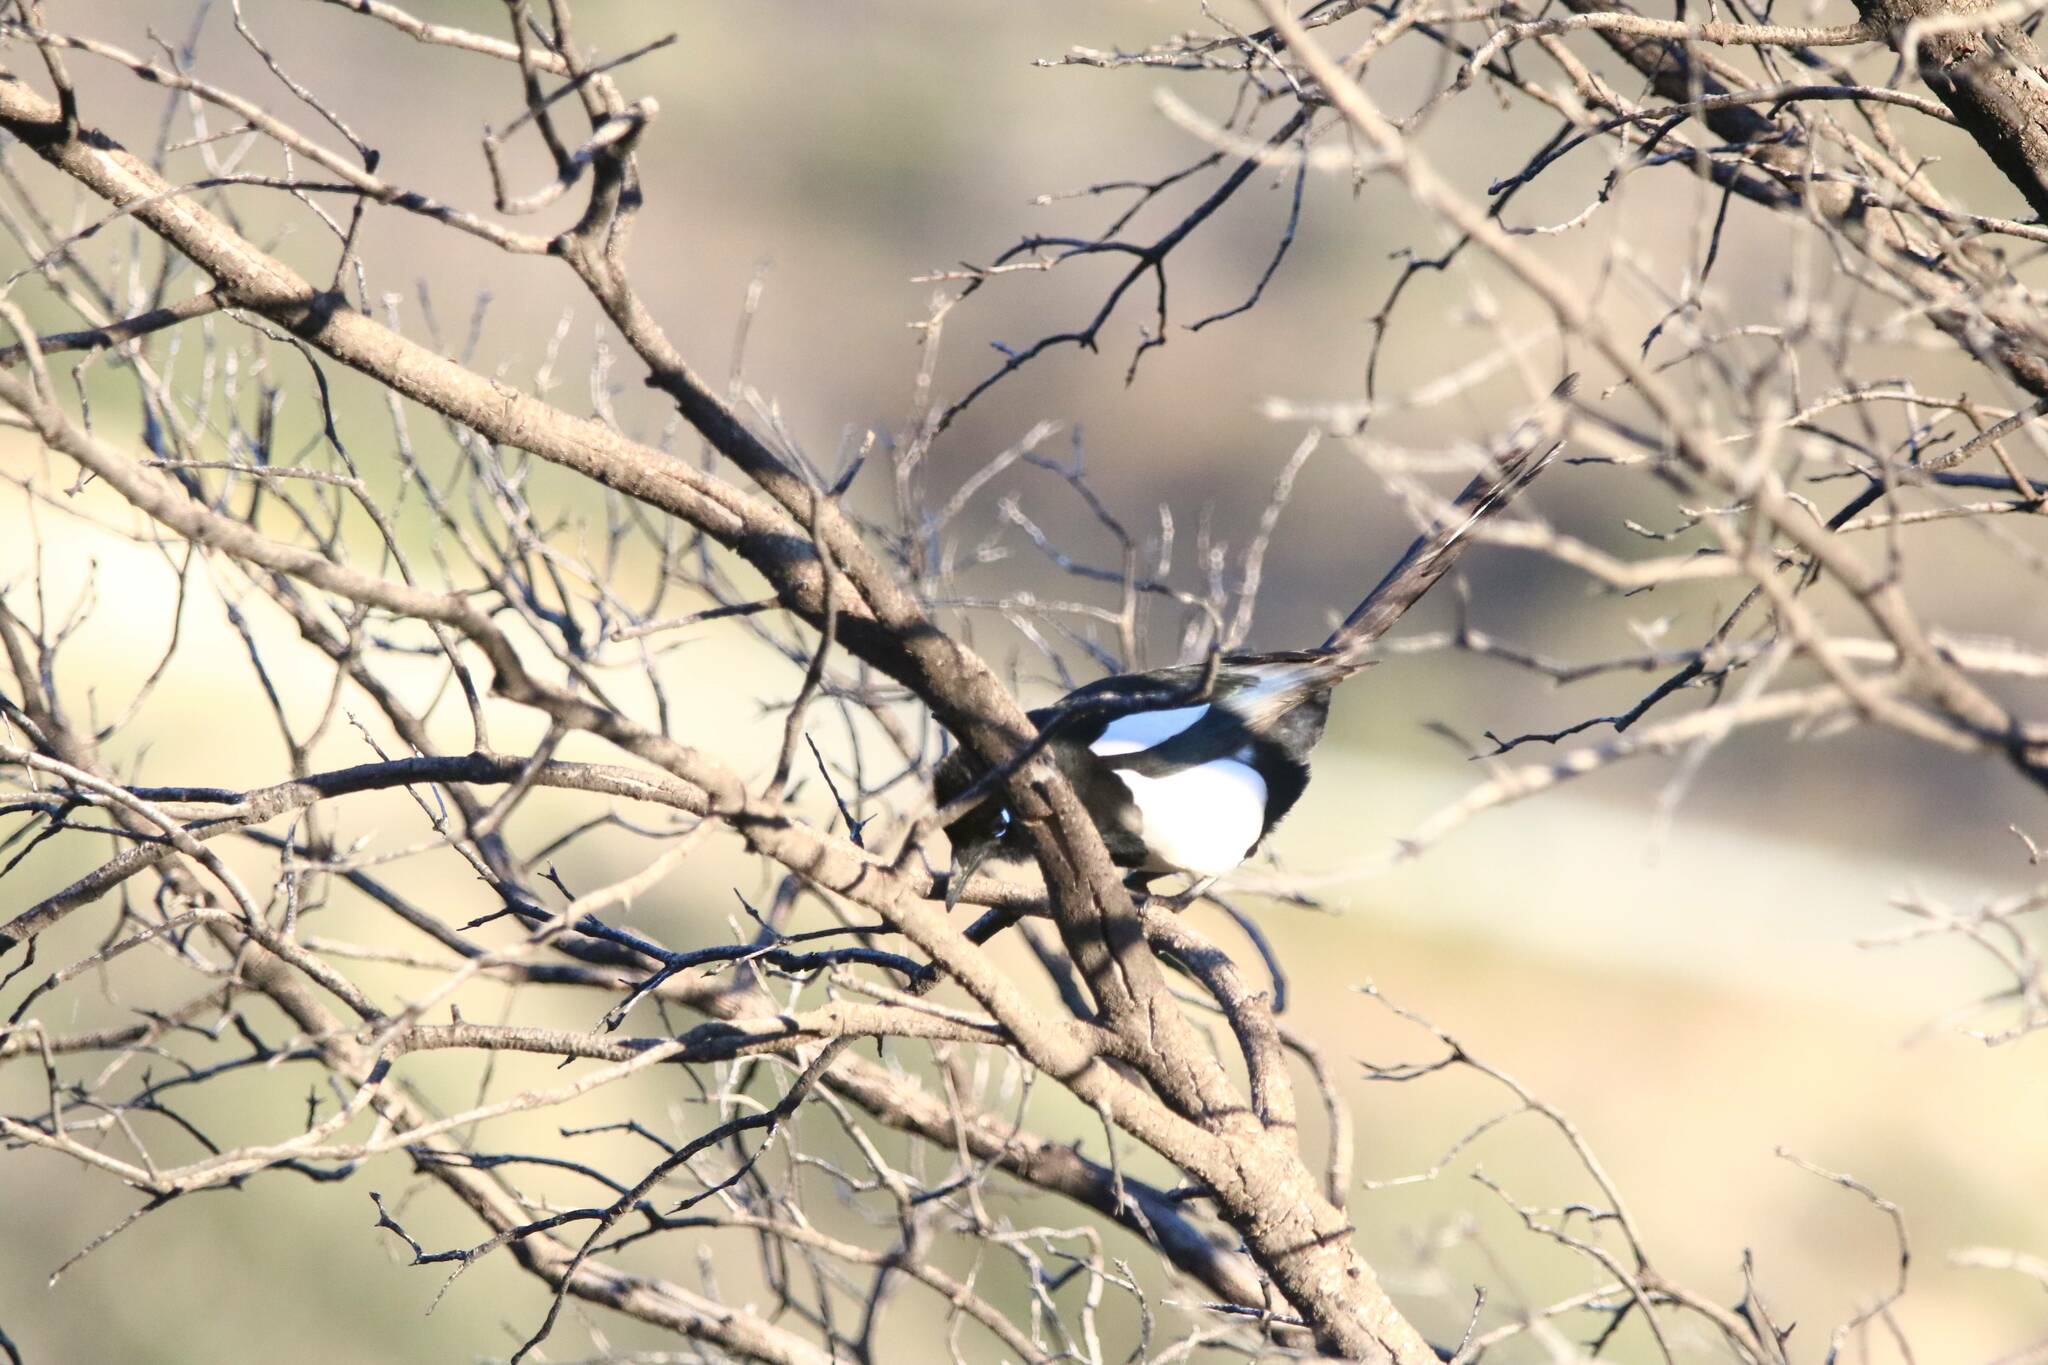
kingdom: Animalia
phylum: Chordata
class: Aves
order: Passeriformes
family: Corvidae
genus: Pica
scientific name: Pica mauritanica
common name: Maghreb magpie
